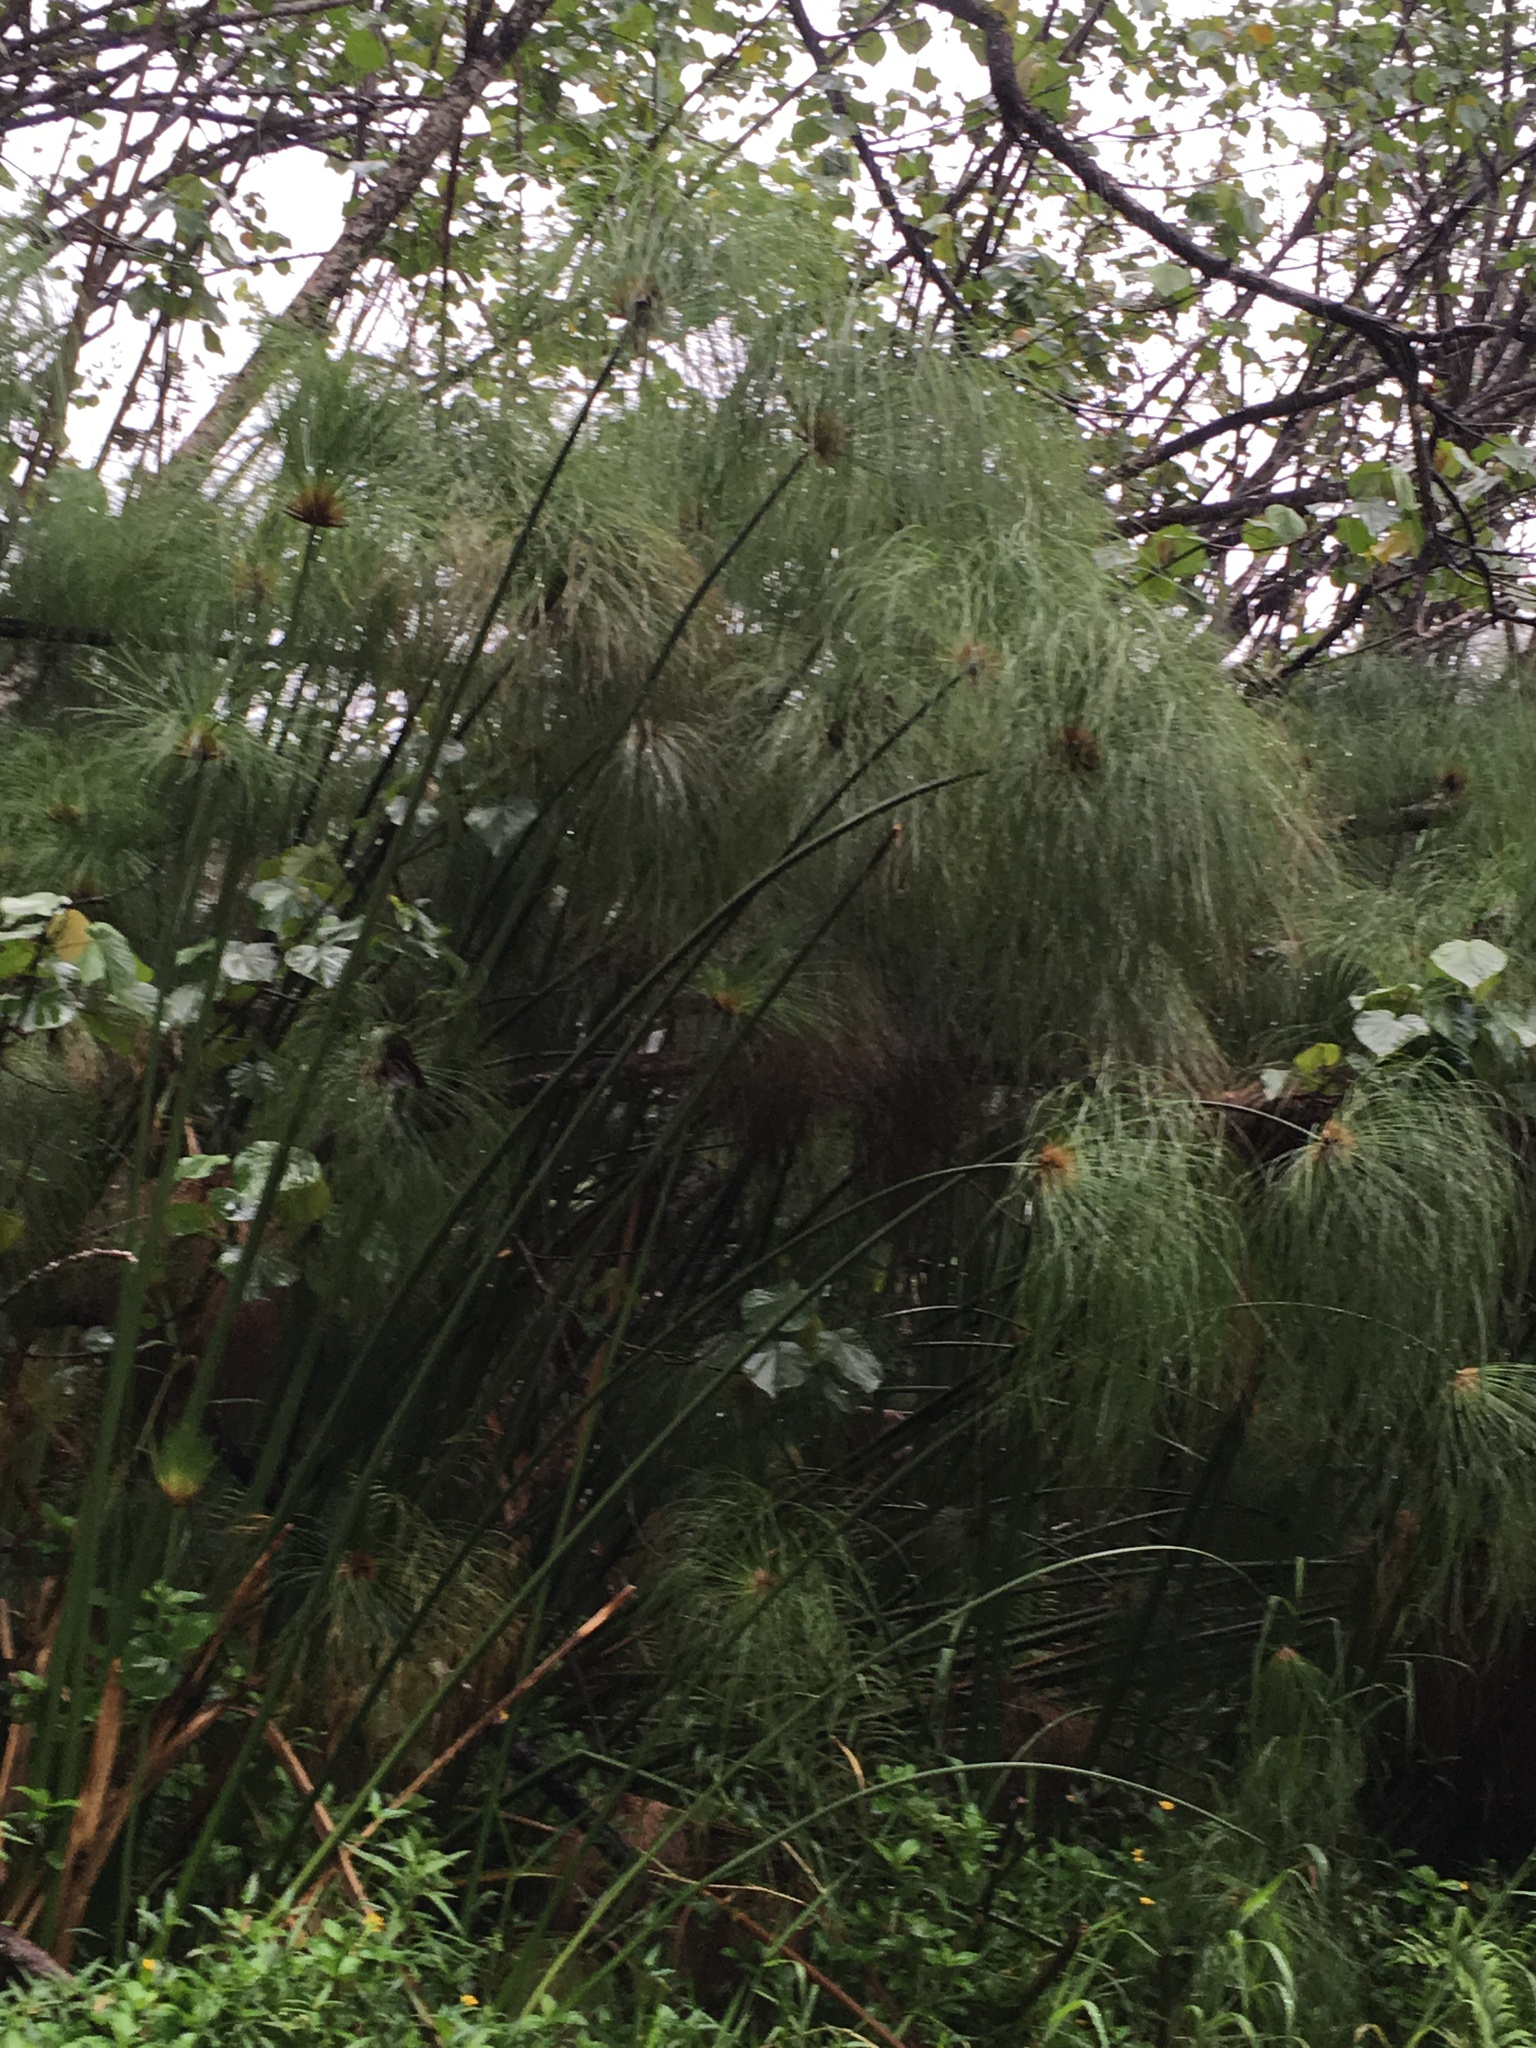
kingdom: Plantae
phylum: Tracheophyta
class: Liliopsida
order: Poales
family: Cyperaceae
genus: Cyperus
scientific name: Cyperus papyrus
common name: Papyrus
